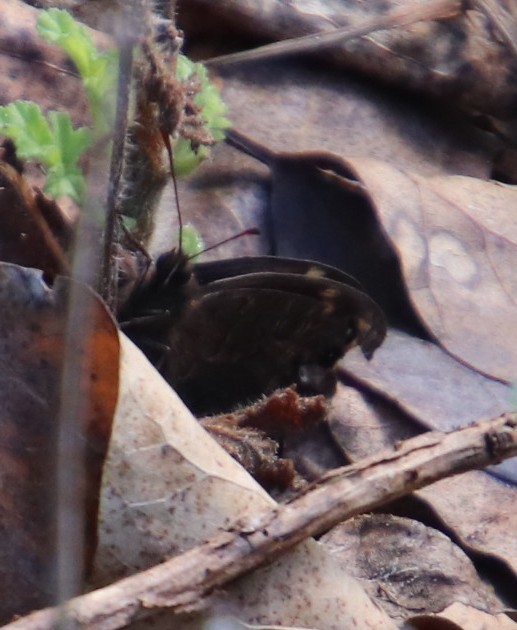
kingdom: Animalia
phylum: Arthropoda
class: Insecta
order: Lepidoptera
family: Nymphalidae
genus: Dira
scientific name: Dira clytus
